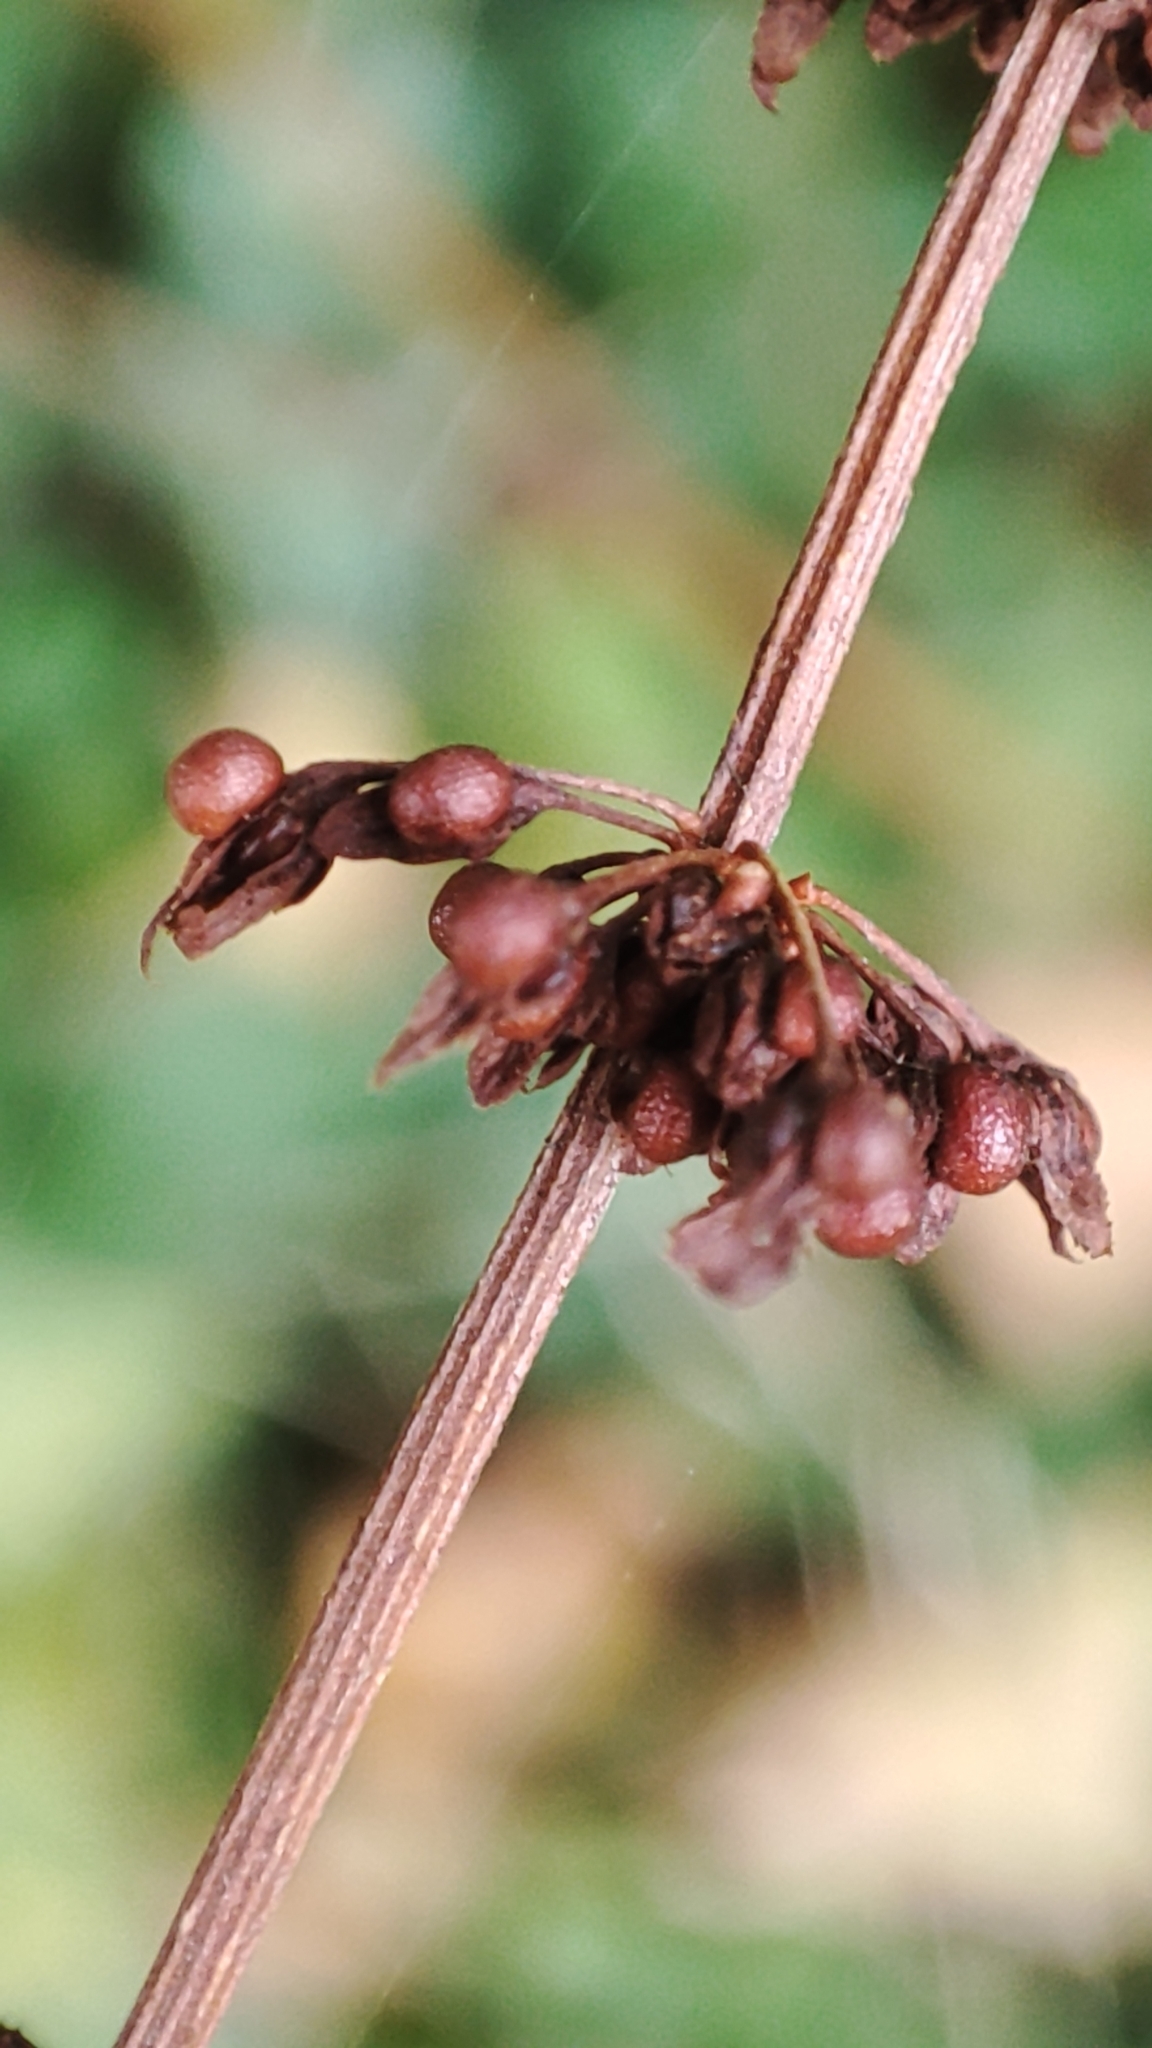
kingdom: Plantae
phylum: Tracheophyta
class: Magnoliopsida
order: Caryophyllales
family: Polygonaceae
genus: Rumex
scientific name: Rumex sanguineus
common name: Wood dock
